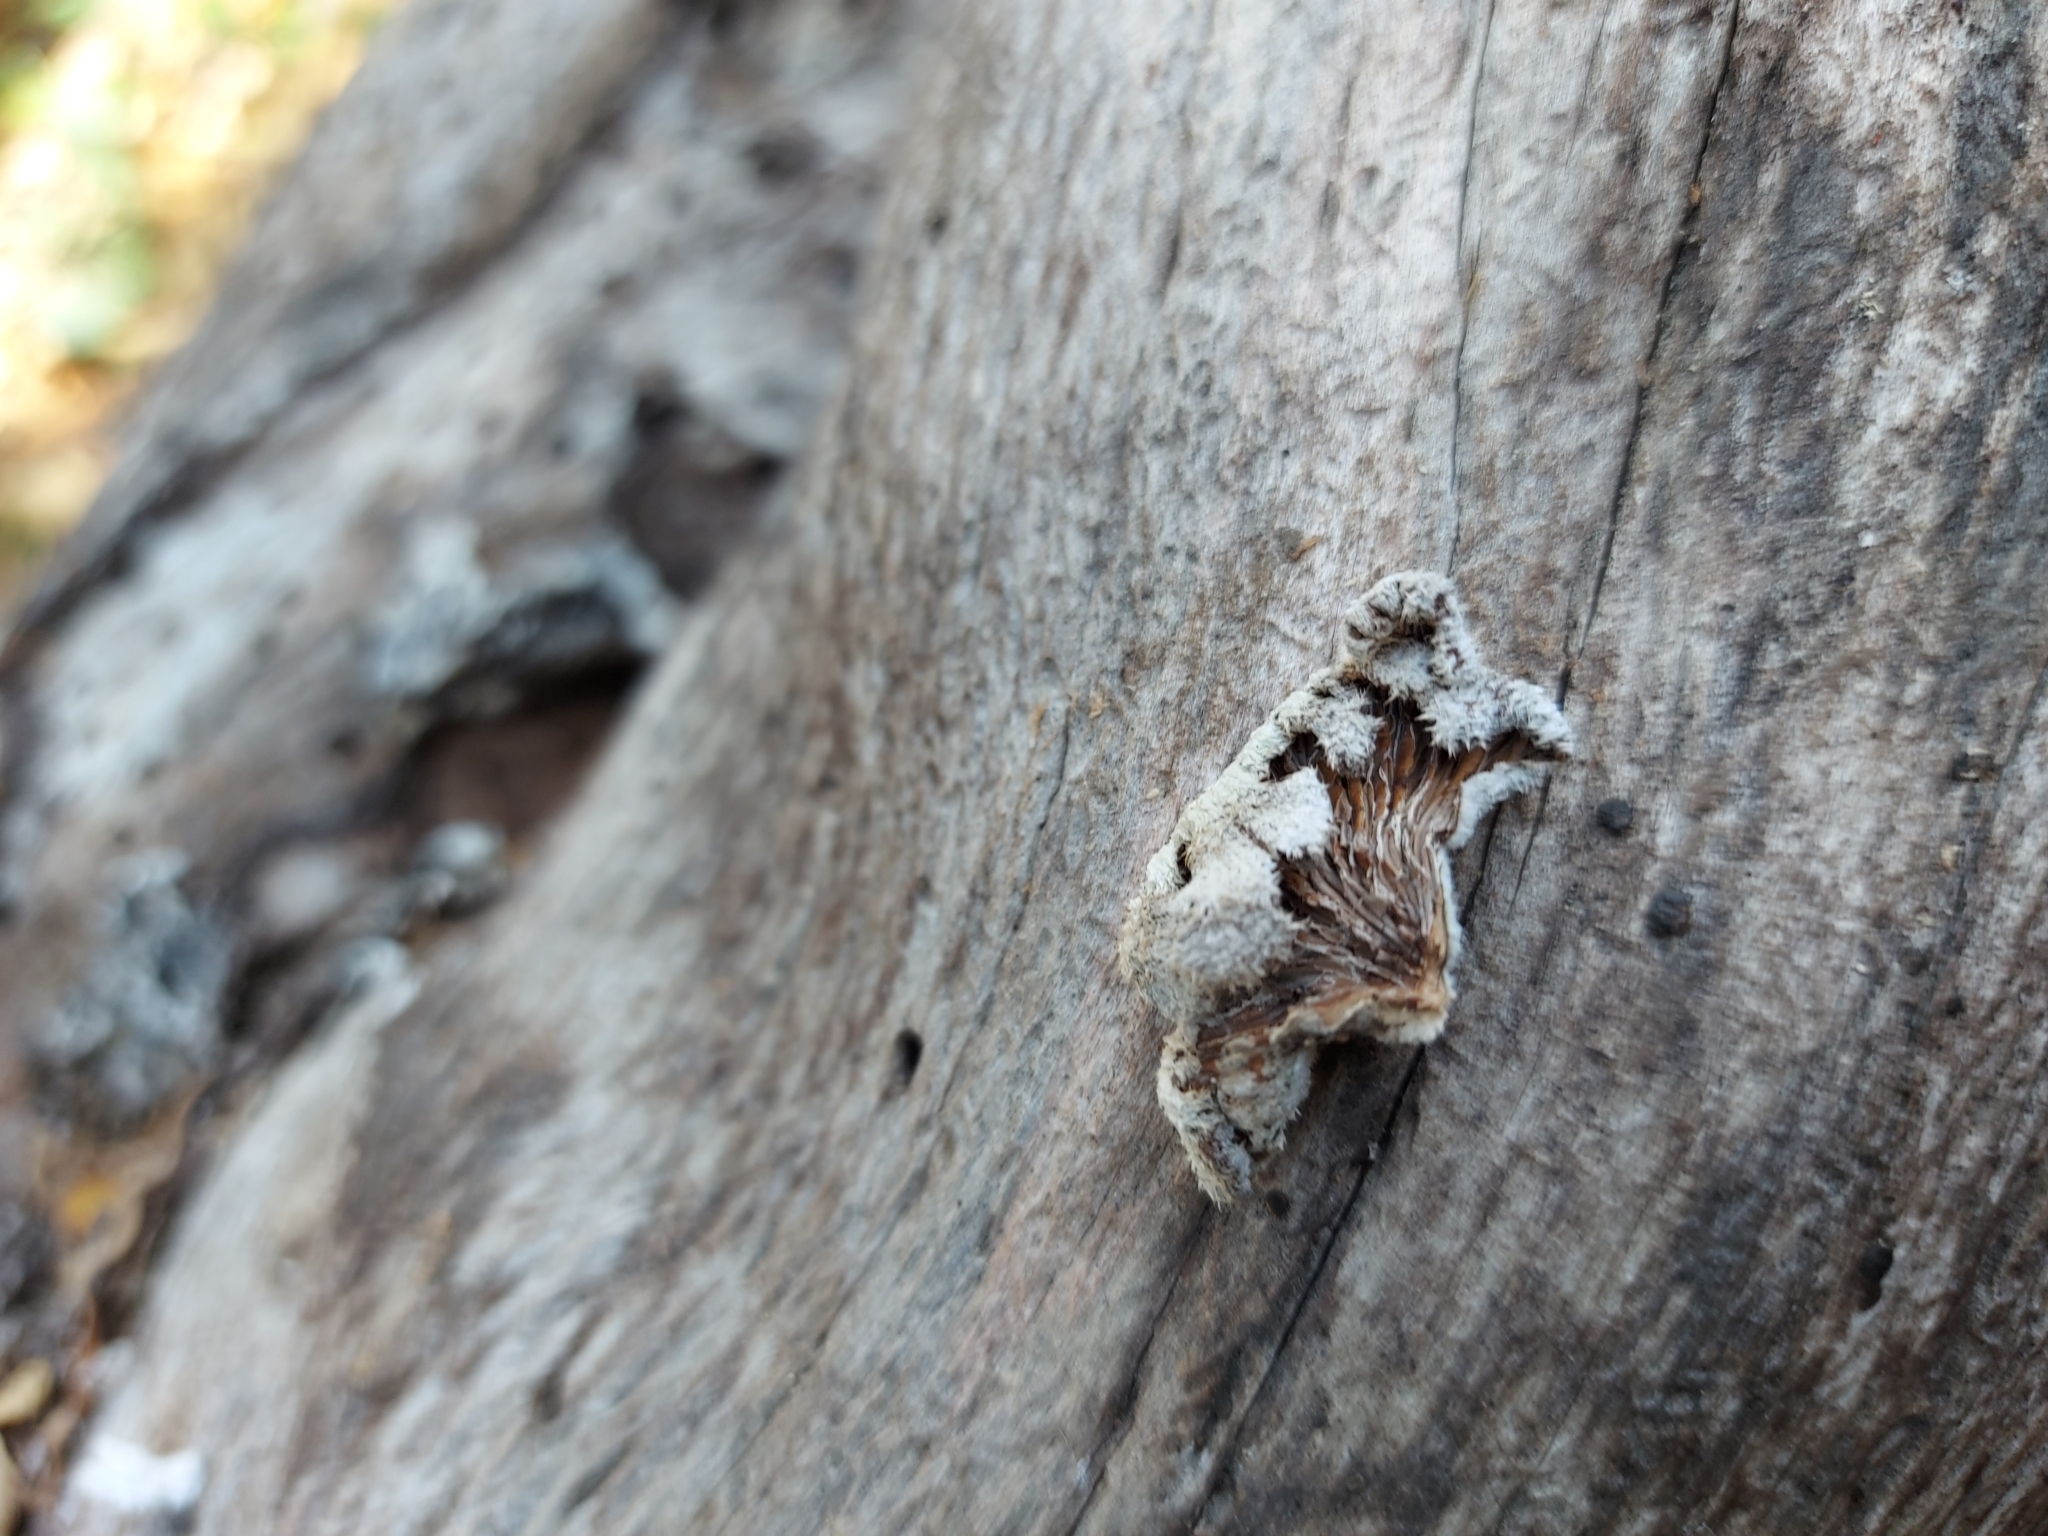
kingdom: Fungi
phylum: Basidiomycota
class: Agaricomycetes
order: Agaricales
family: Schizophyllaceae
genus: Schizophyllum
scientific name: Schizophyllum commune
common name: Common porecrust
